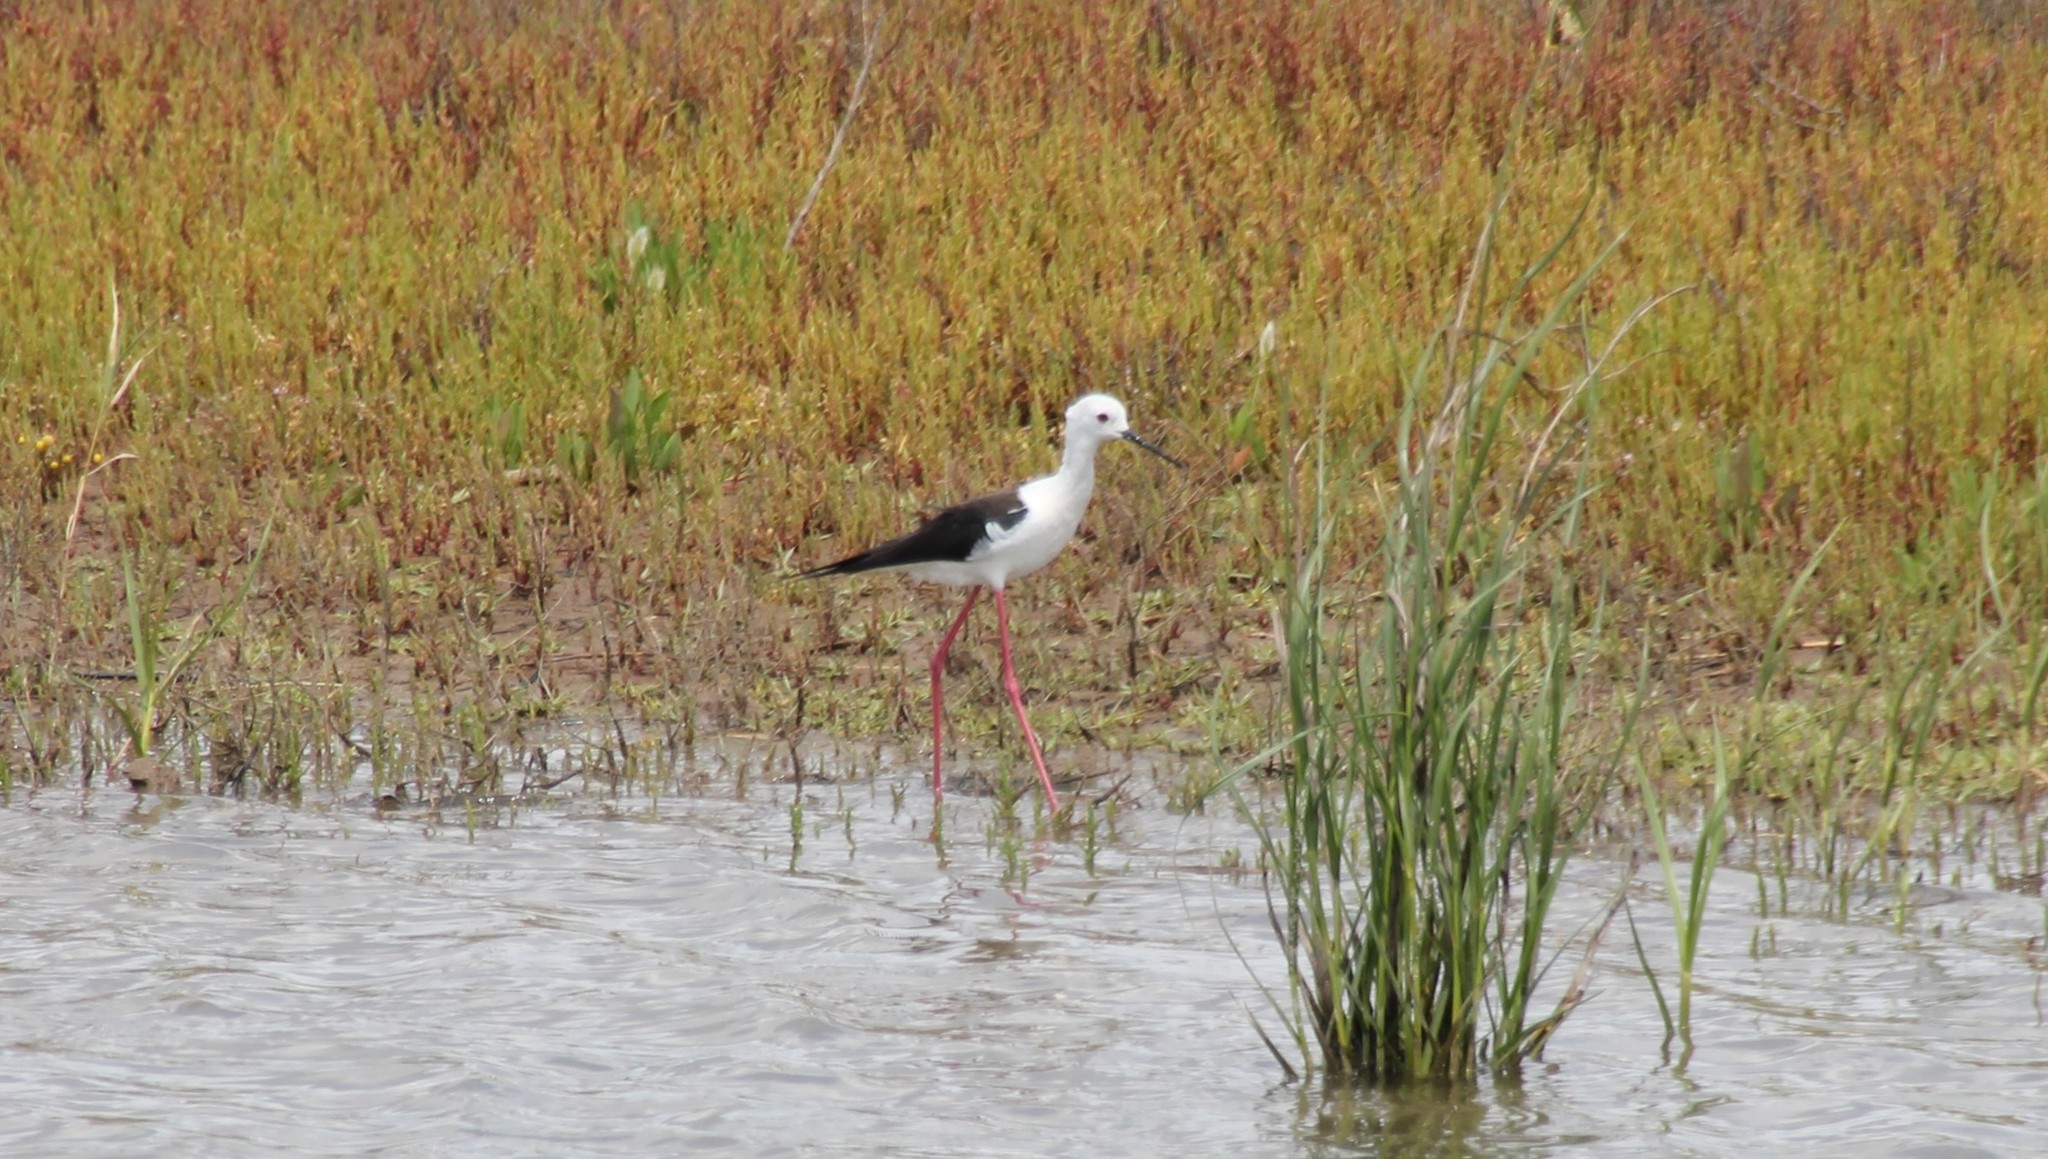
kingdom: Animalia
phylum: Chordata
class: Aves
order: Charadriiformes
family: Recurvirostridae
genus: Himantopus
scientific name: Himantopus himantopus
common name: Black-winged stilt
